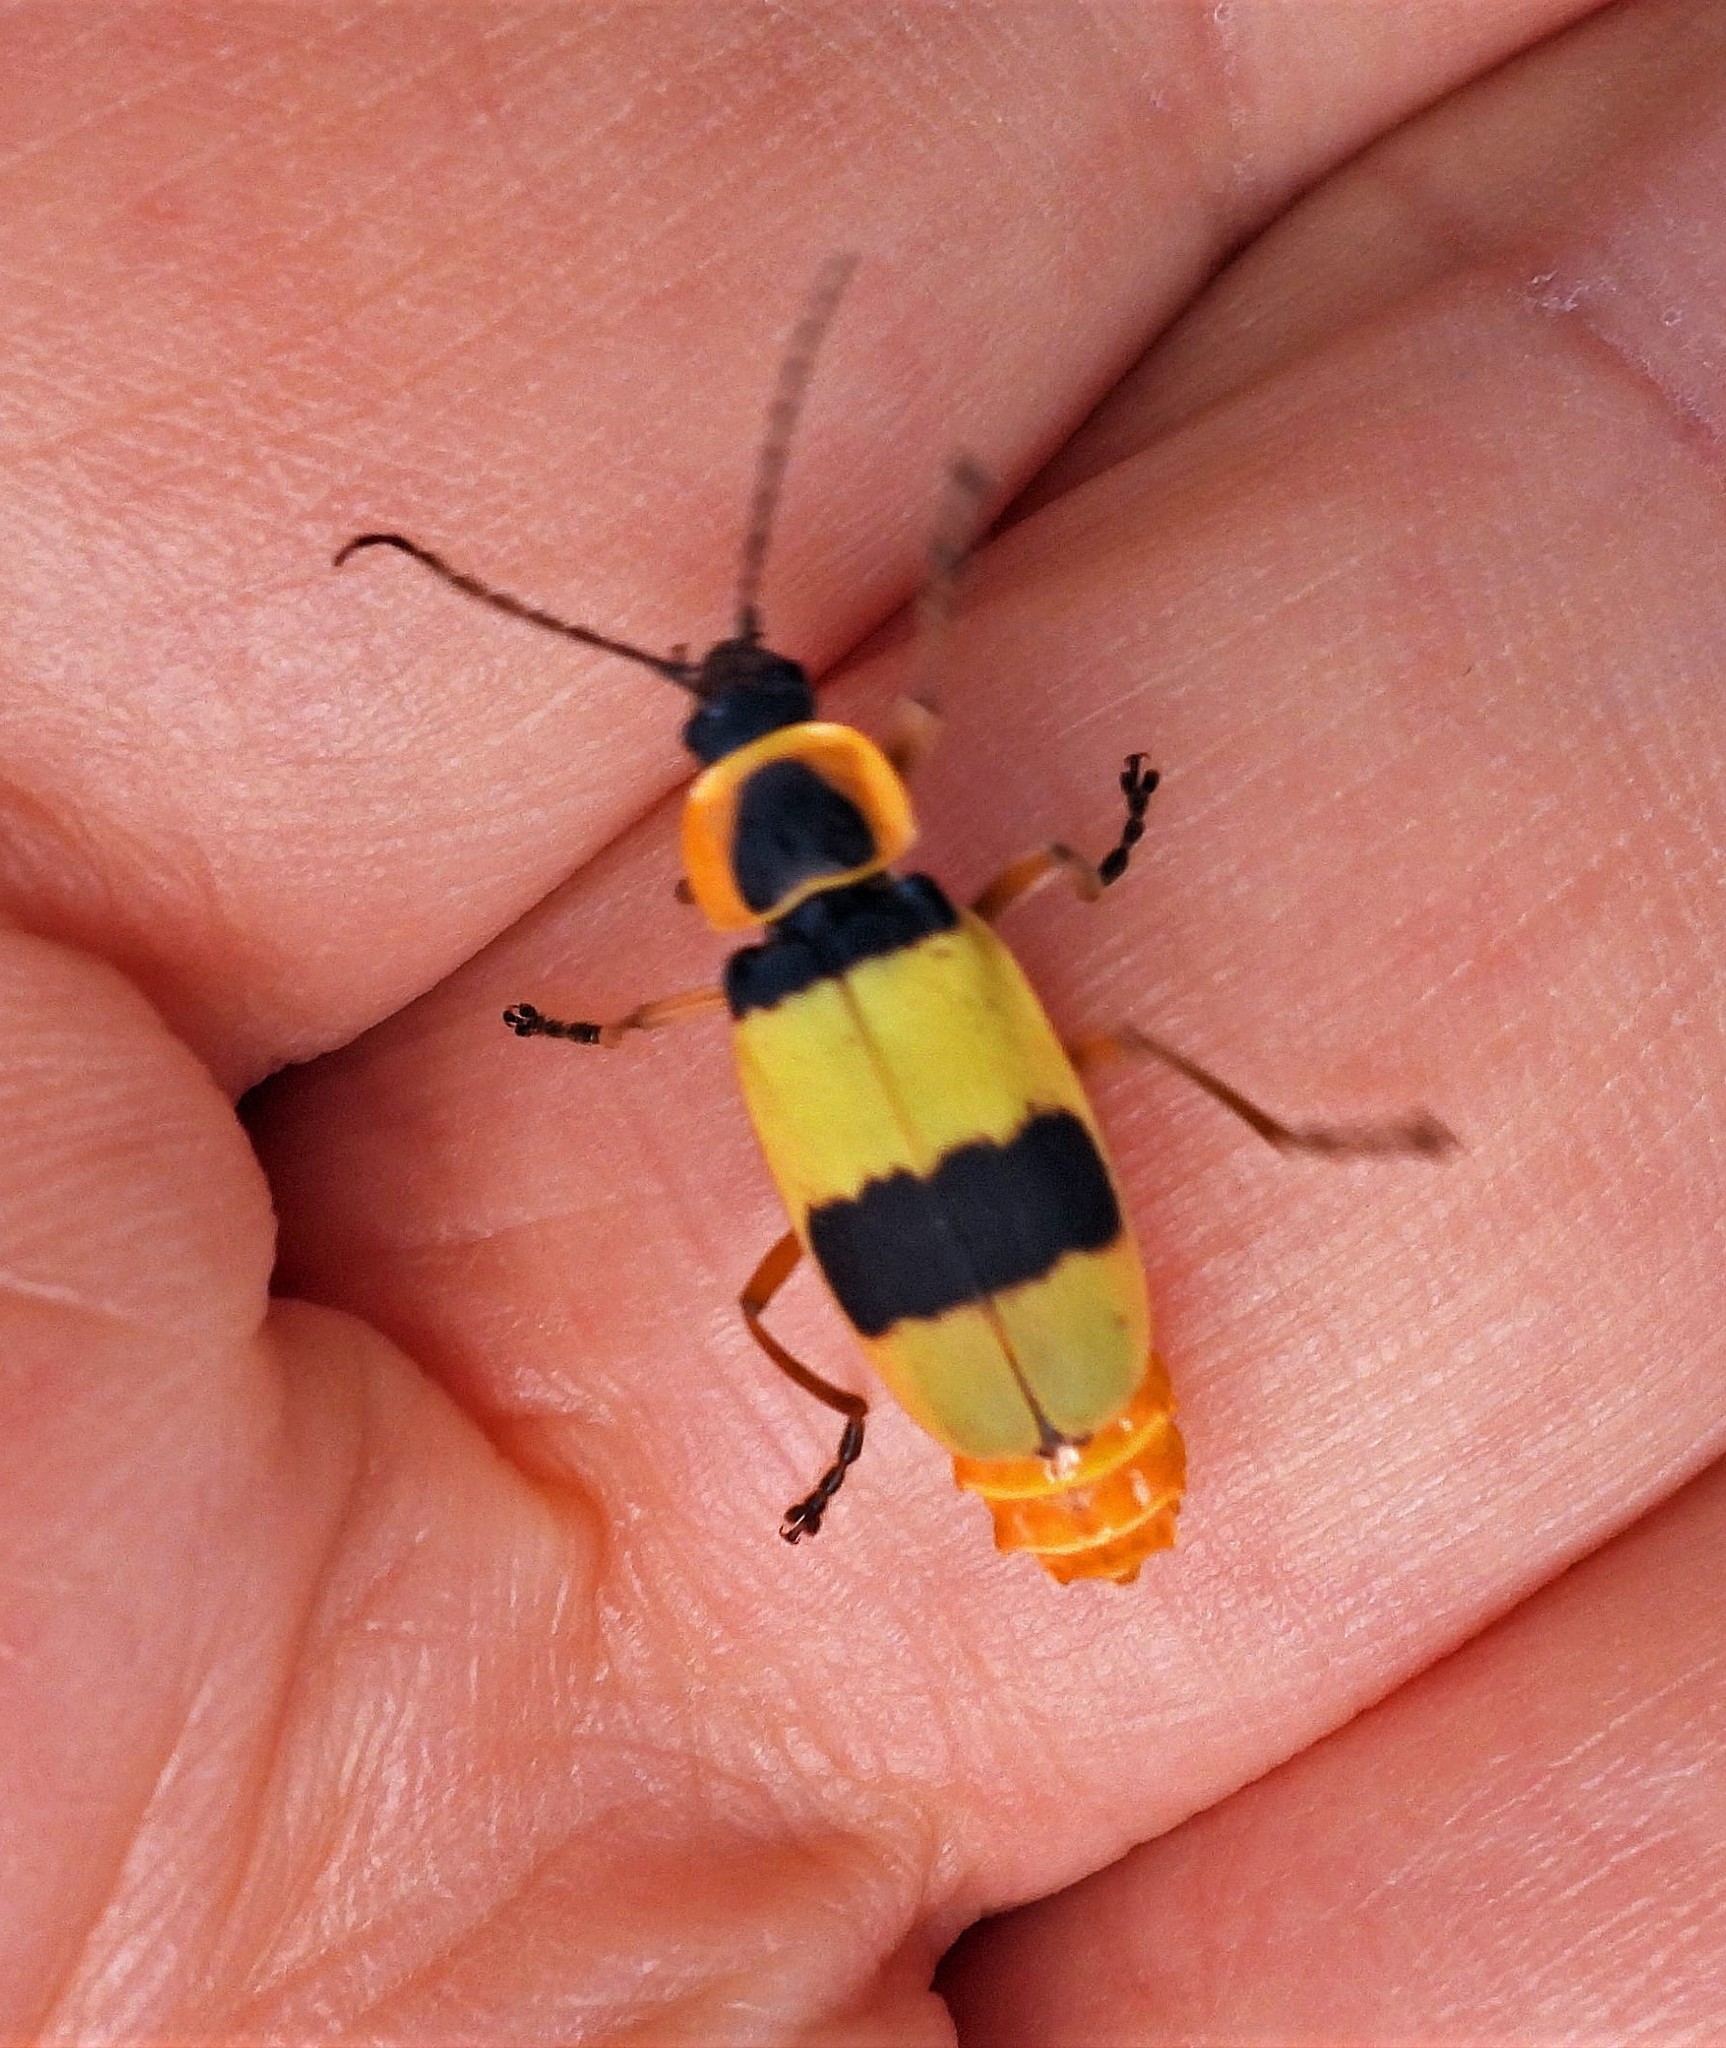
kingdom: Animalia
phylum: Arthropoda
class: Insecta
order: Coleoptera
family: Cantharidae
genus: Chauliognathus
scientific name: Chauliognathus
